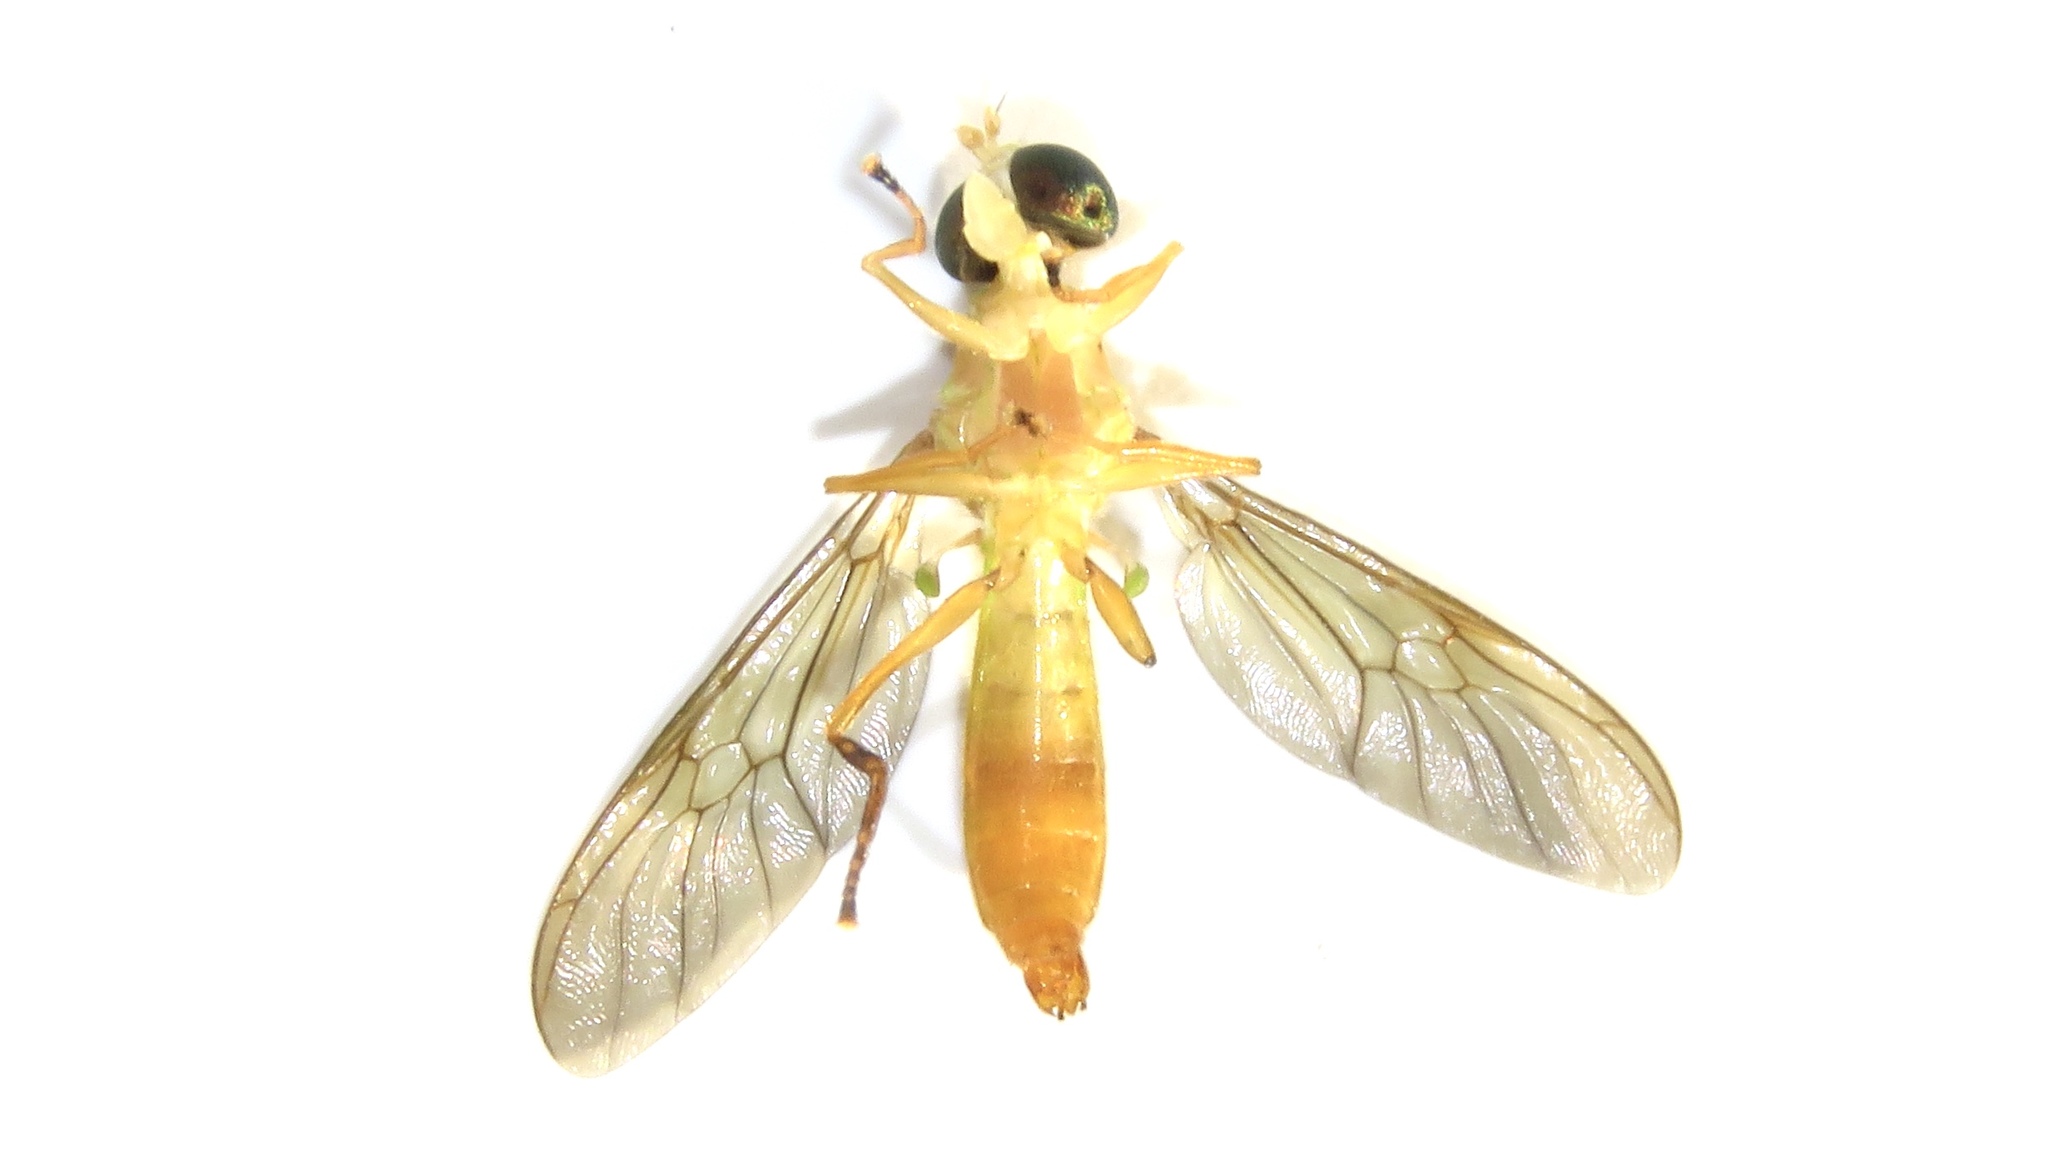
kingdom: Animalia
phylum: Arthropoda
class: Insecta
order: Diptera
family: Stratiomyidae
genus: Ptecticus
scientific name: Ptecticus trivittatus
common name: Compost fly
